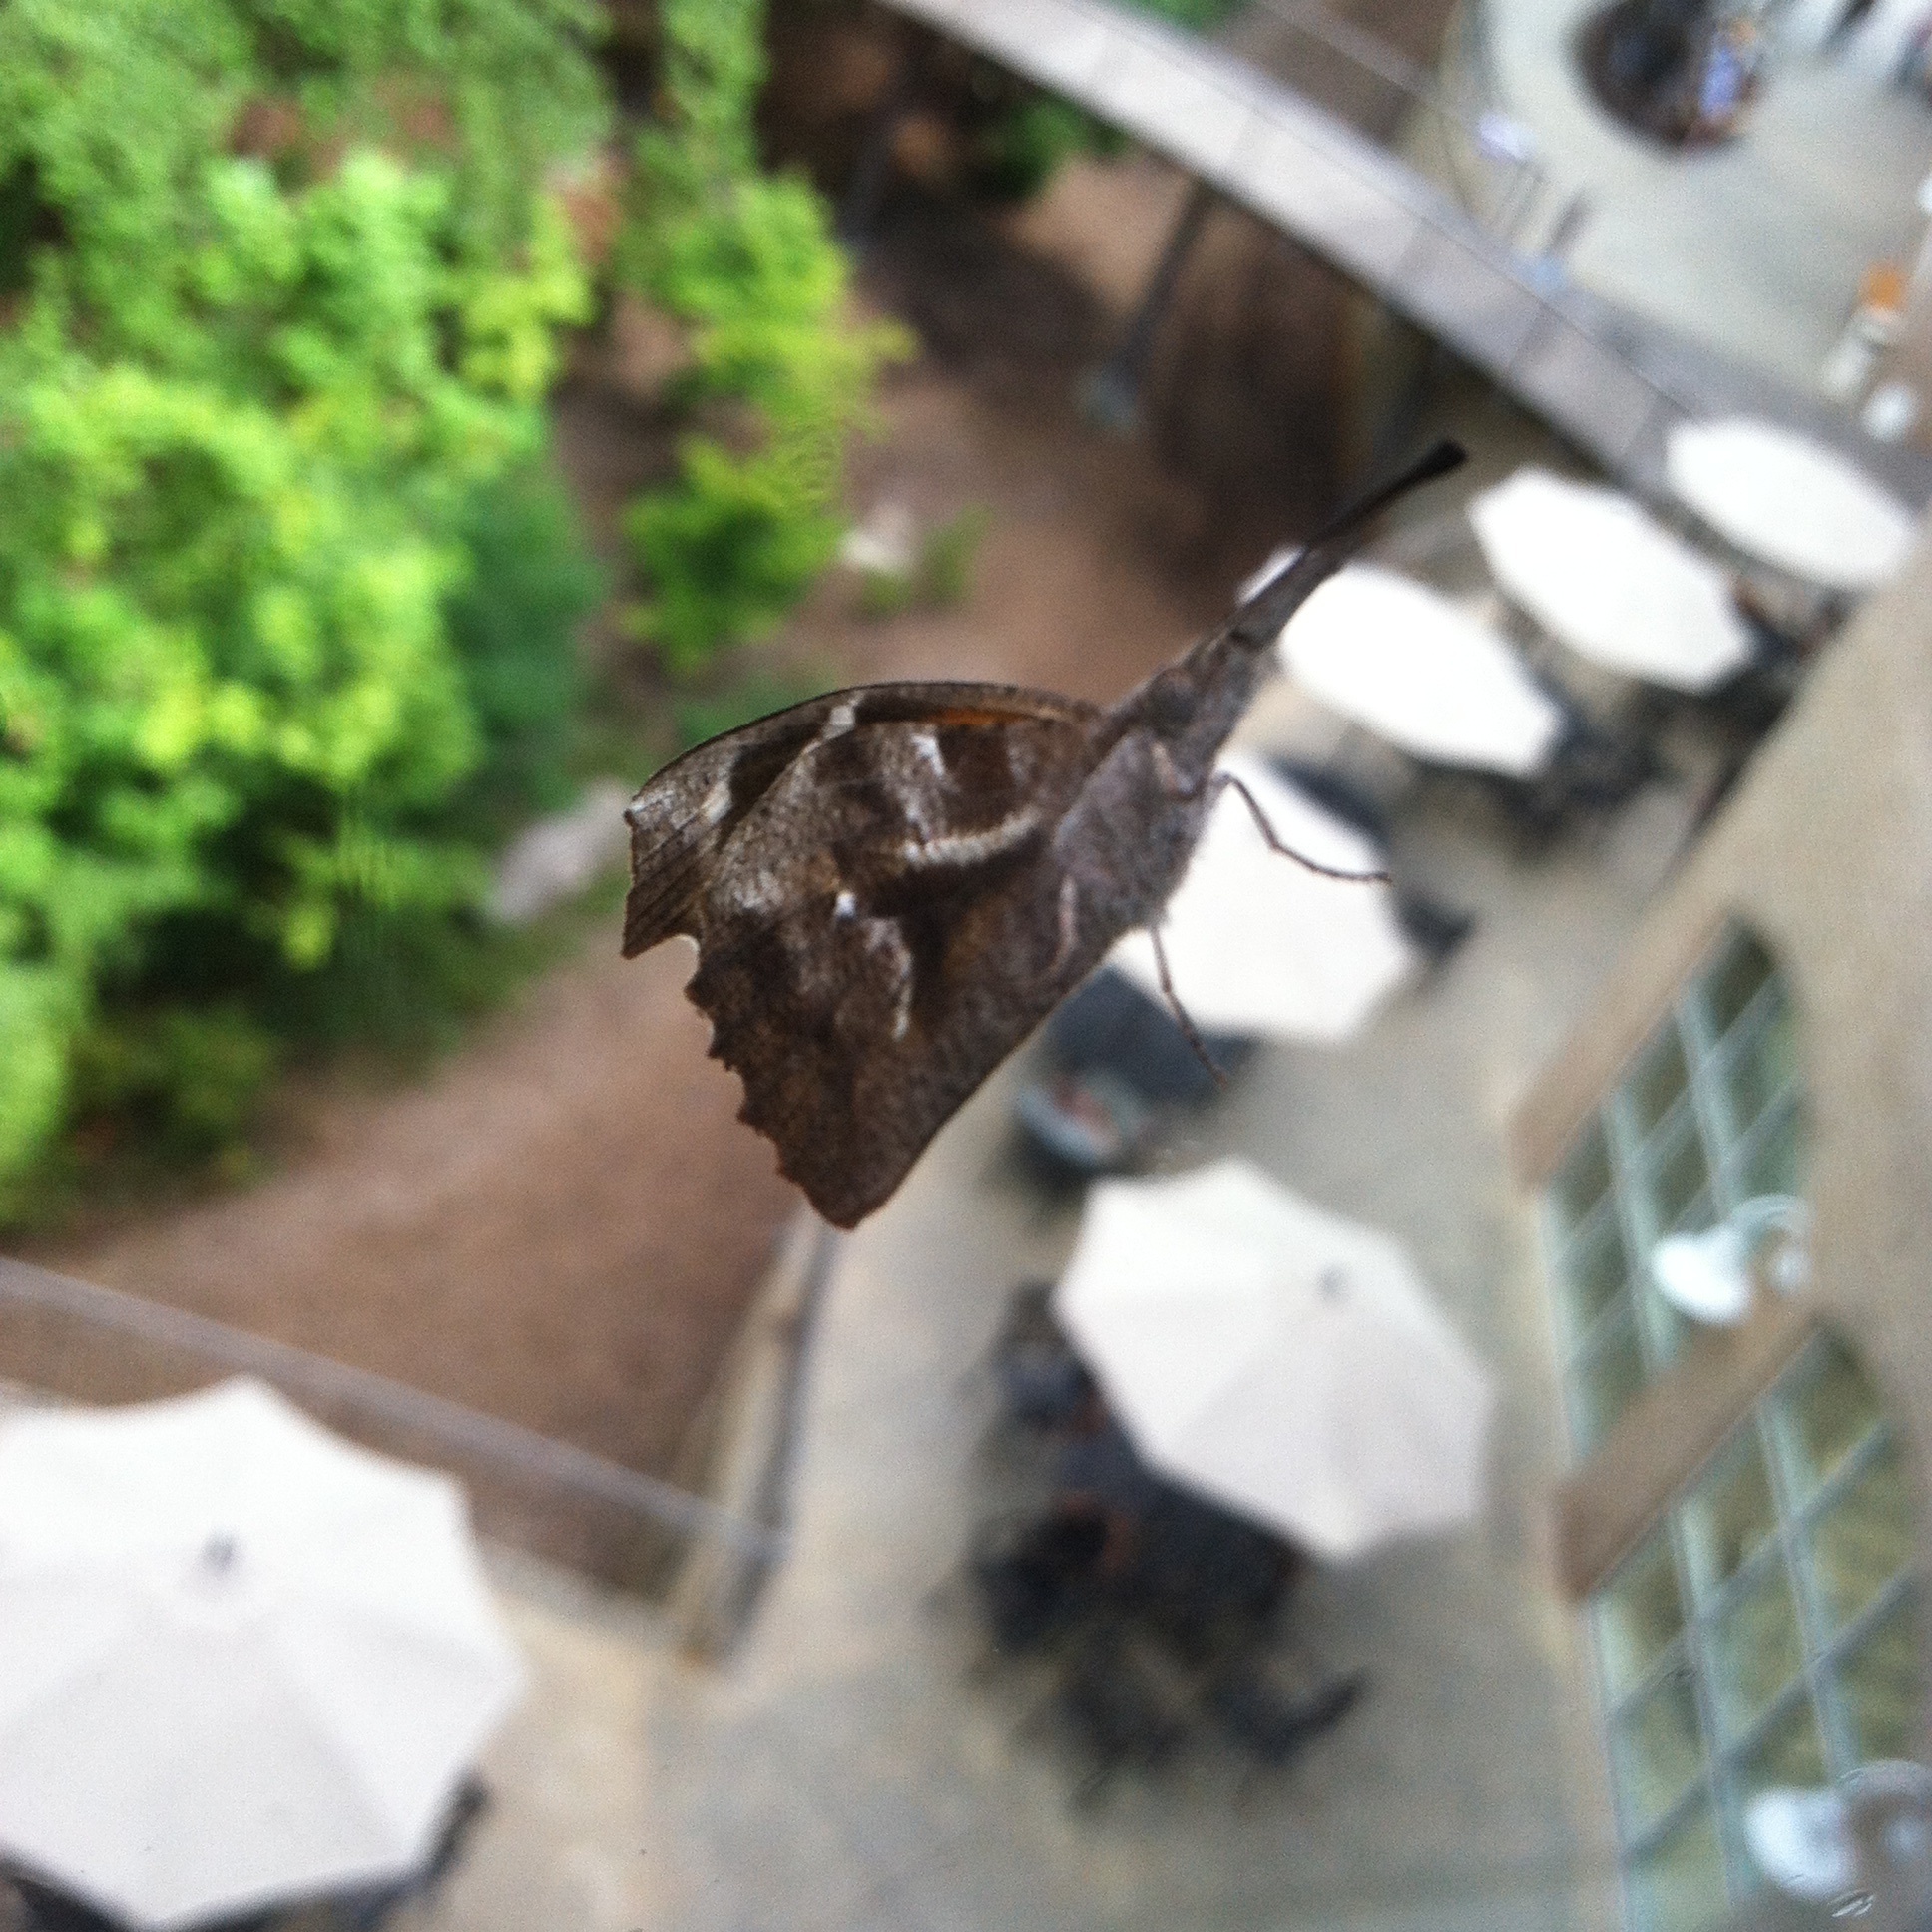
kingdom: Animalia
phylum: Arthropoda
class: Insecta
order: Lepidoptera
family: Nymphalidae
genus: Libytheana
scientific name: Libytheana carinenta
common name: American snout
